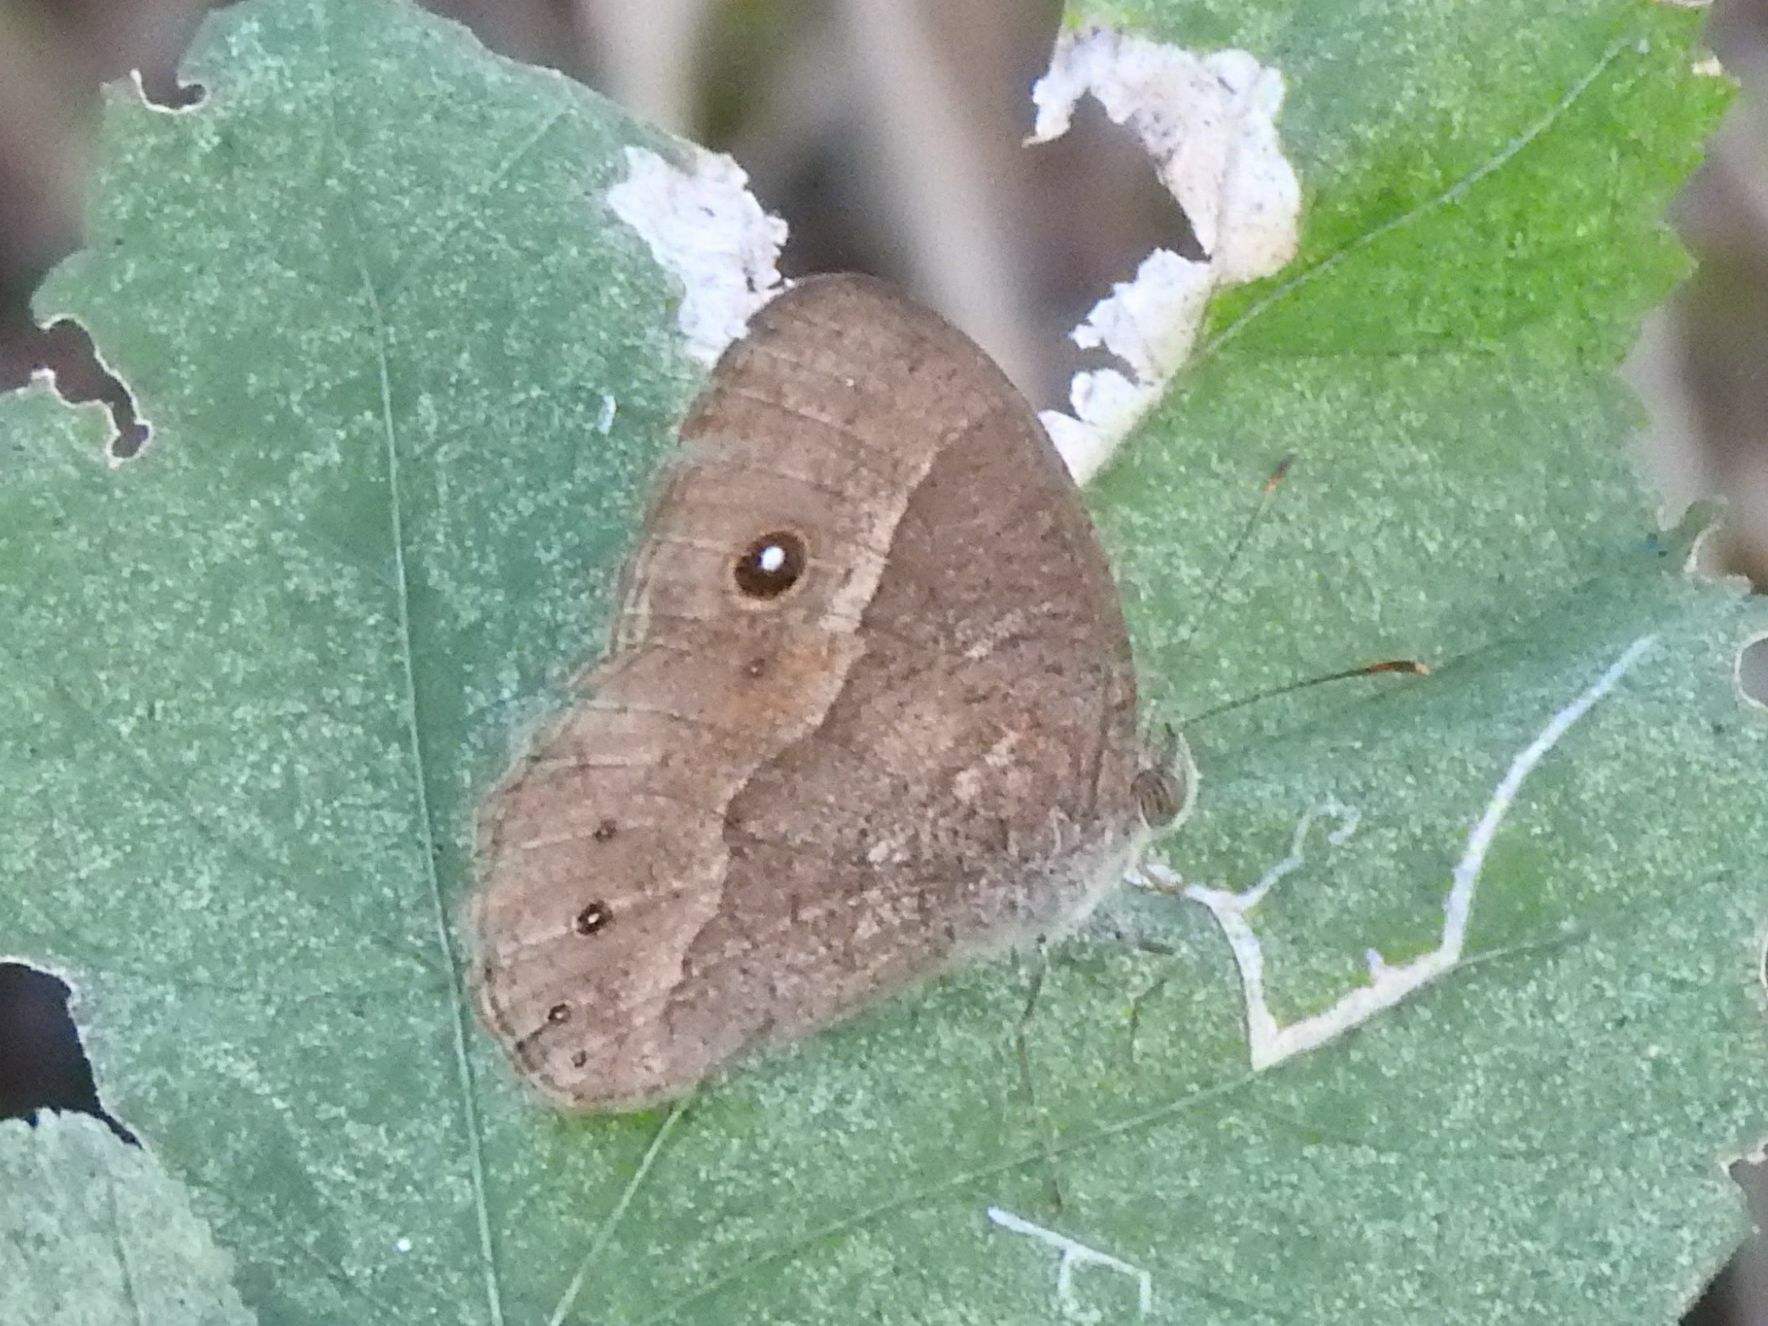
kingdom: Animalia
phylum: Arthropoda
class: Insecta
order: Lepidoptera
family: Nymphalidae
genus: Mycalesis
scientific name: Mycalesis anynana
